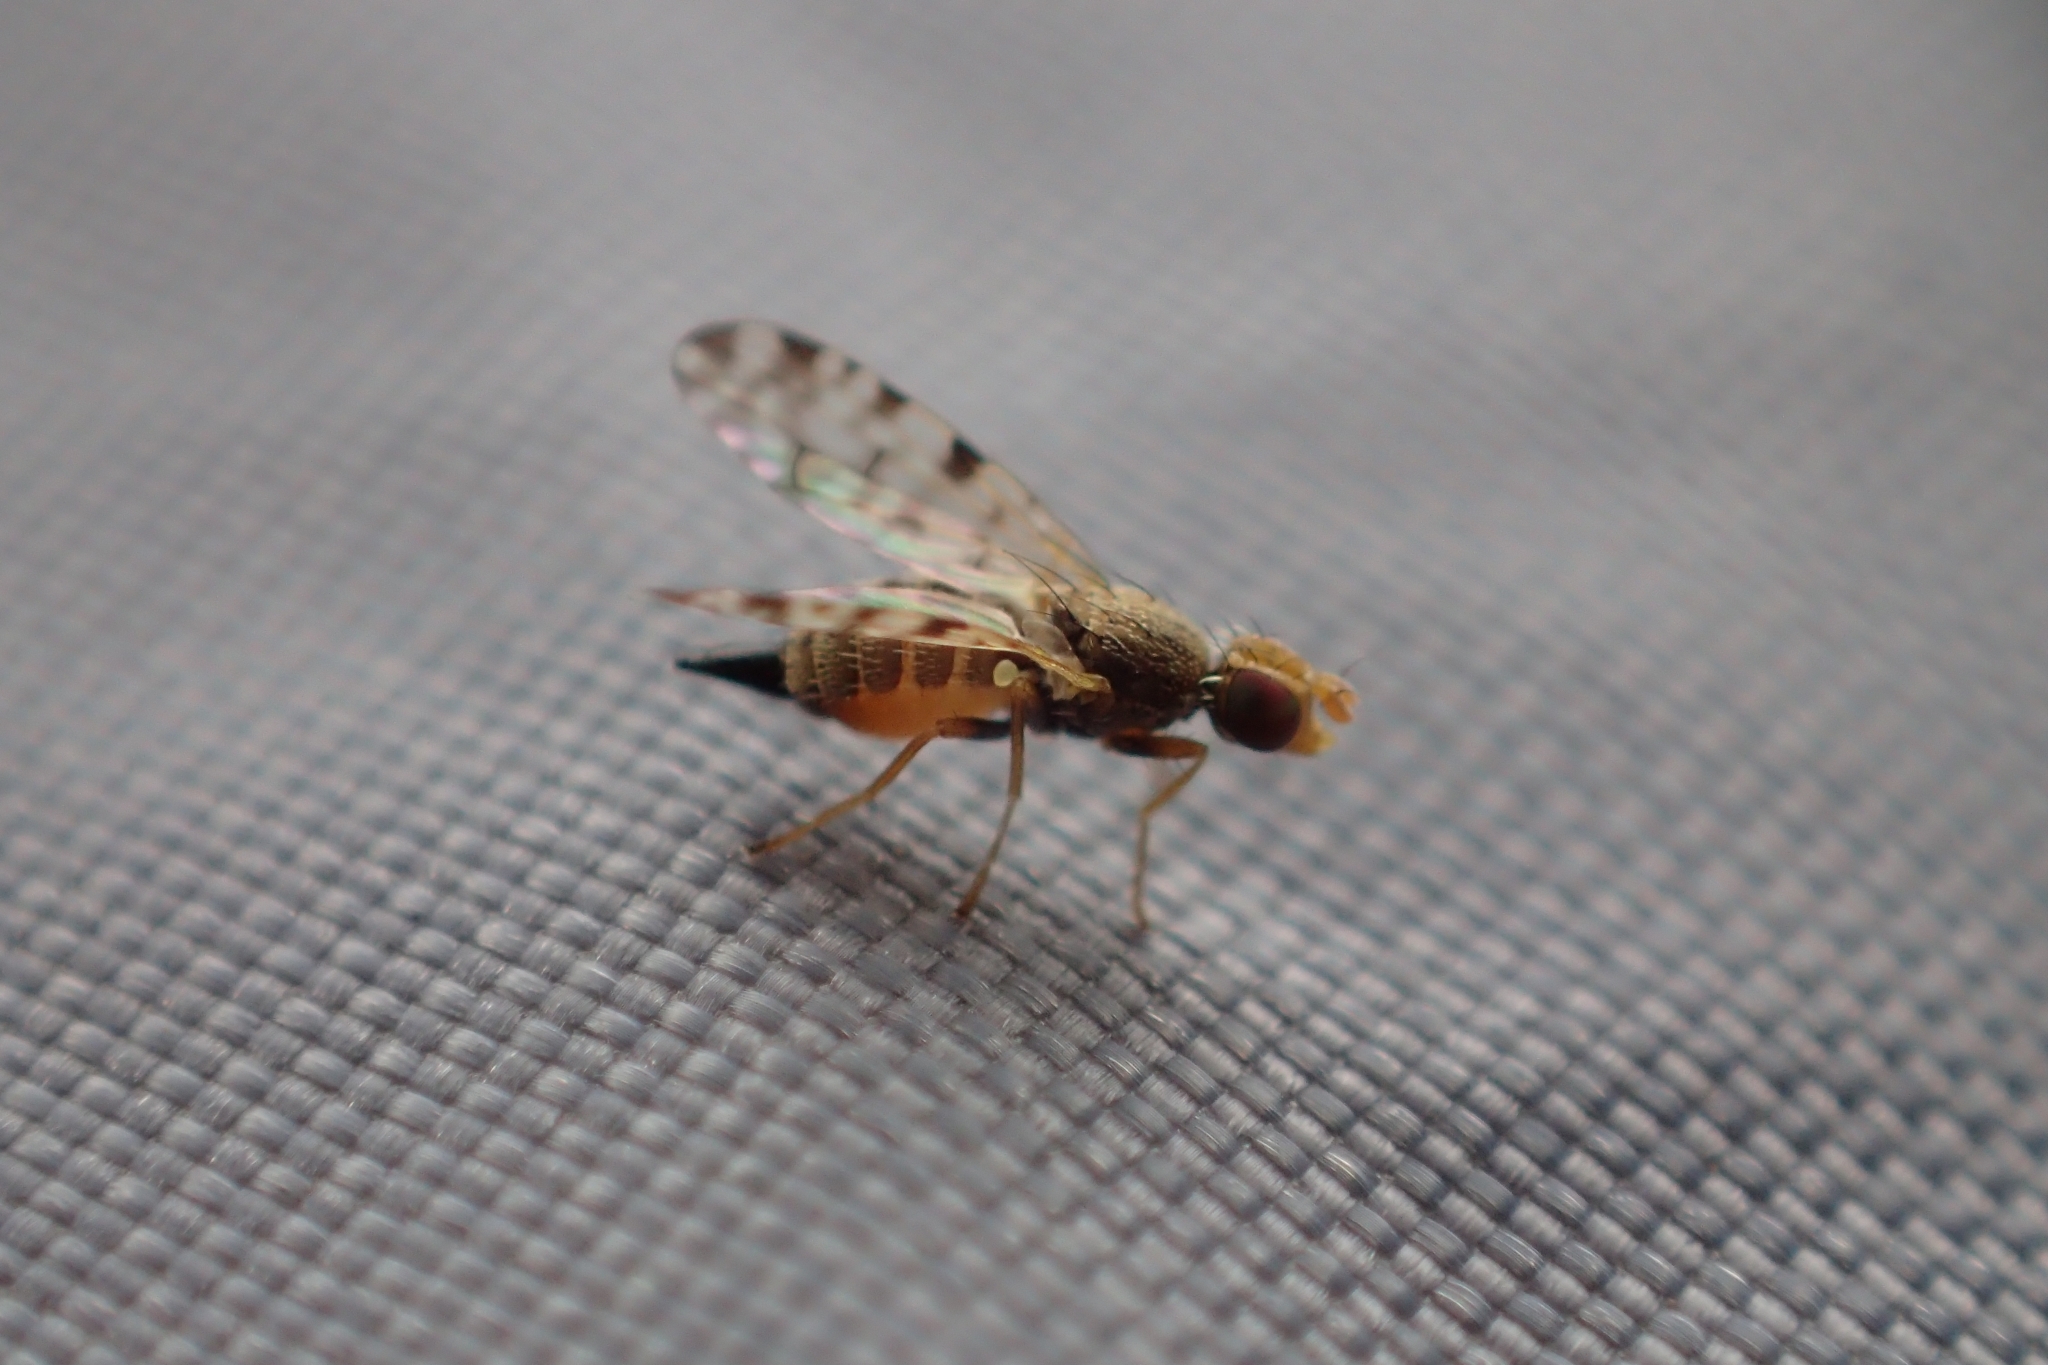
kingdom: Animalia
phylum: Arthropoda
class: Insecta
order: Diptera
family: Tephritidae
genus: Dioxyna
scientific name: Dioxyna sororcula
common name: Fruit fly
